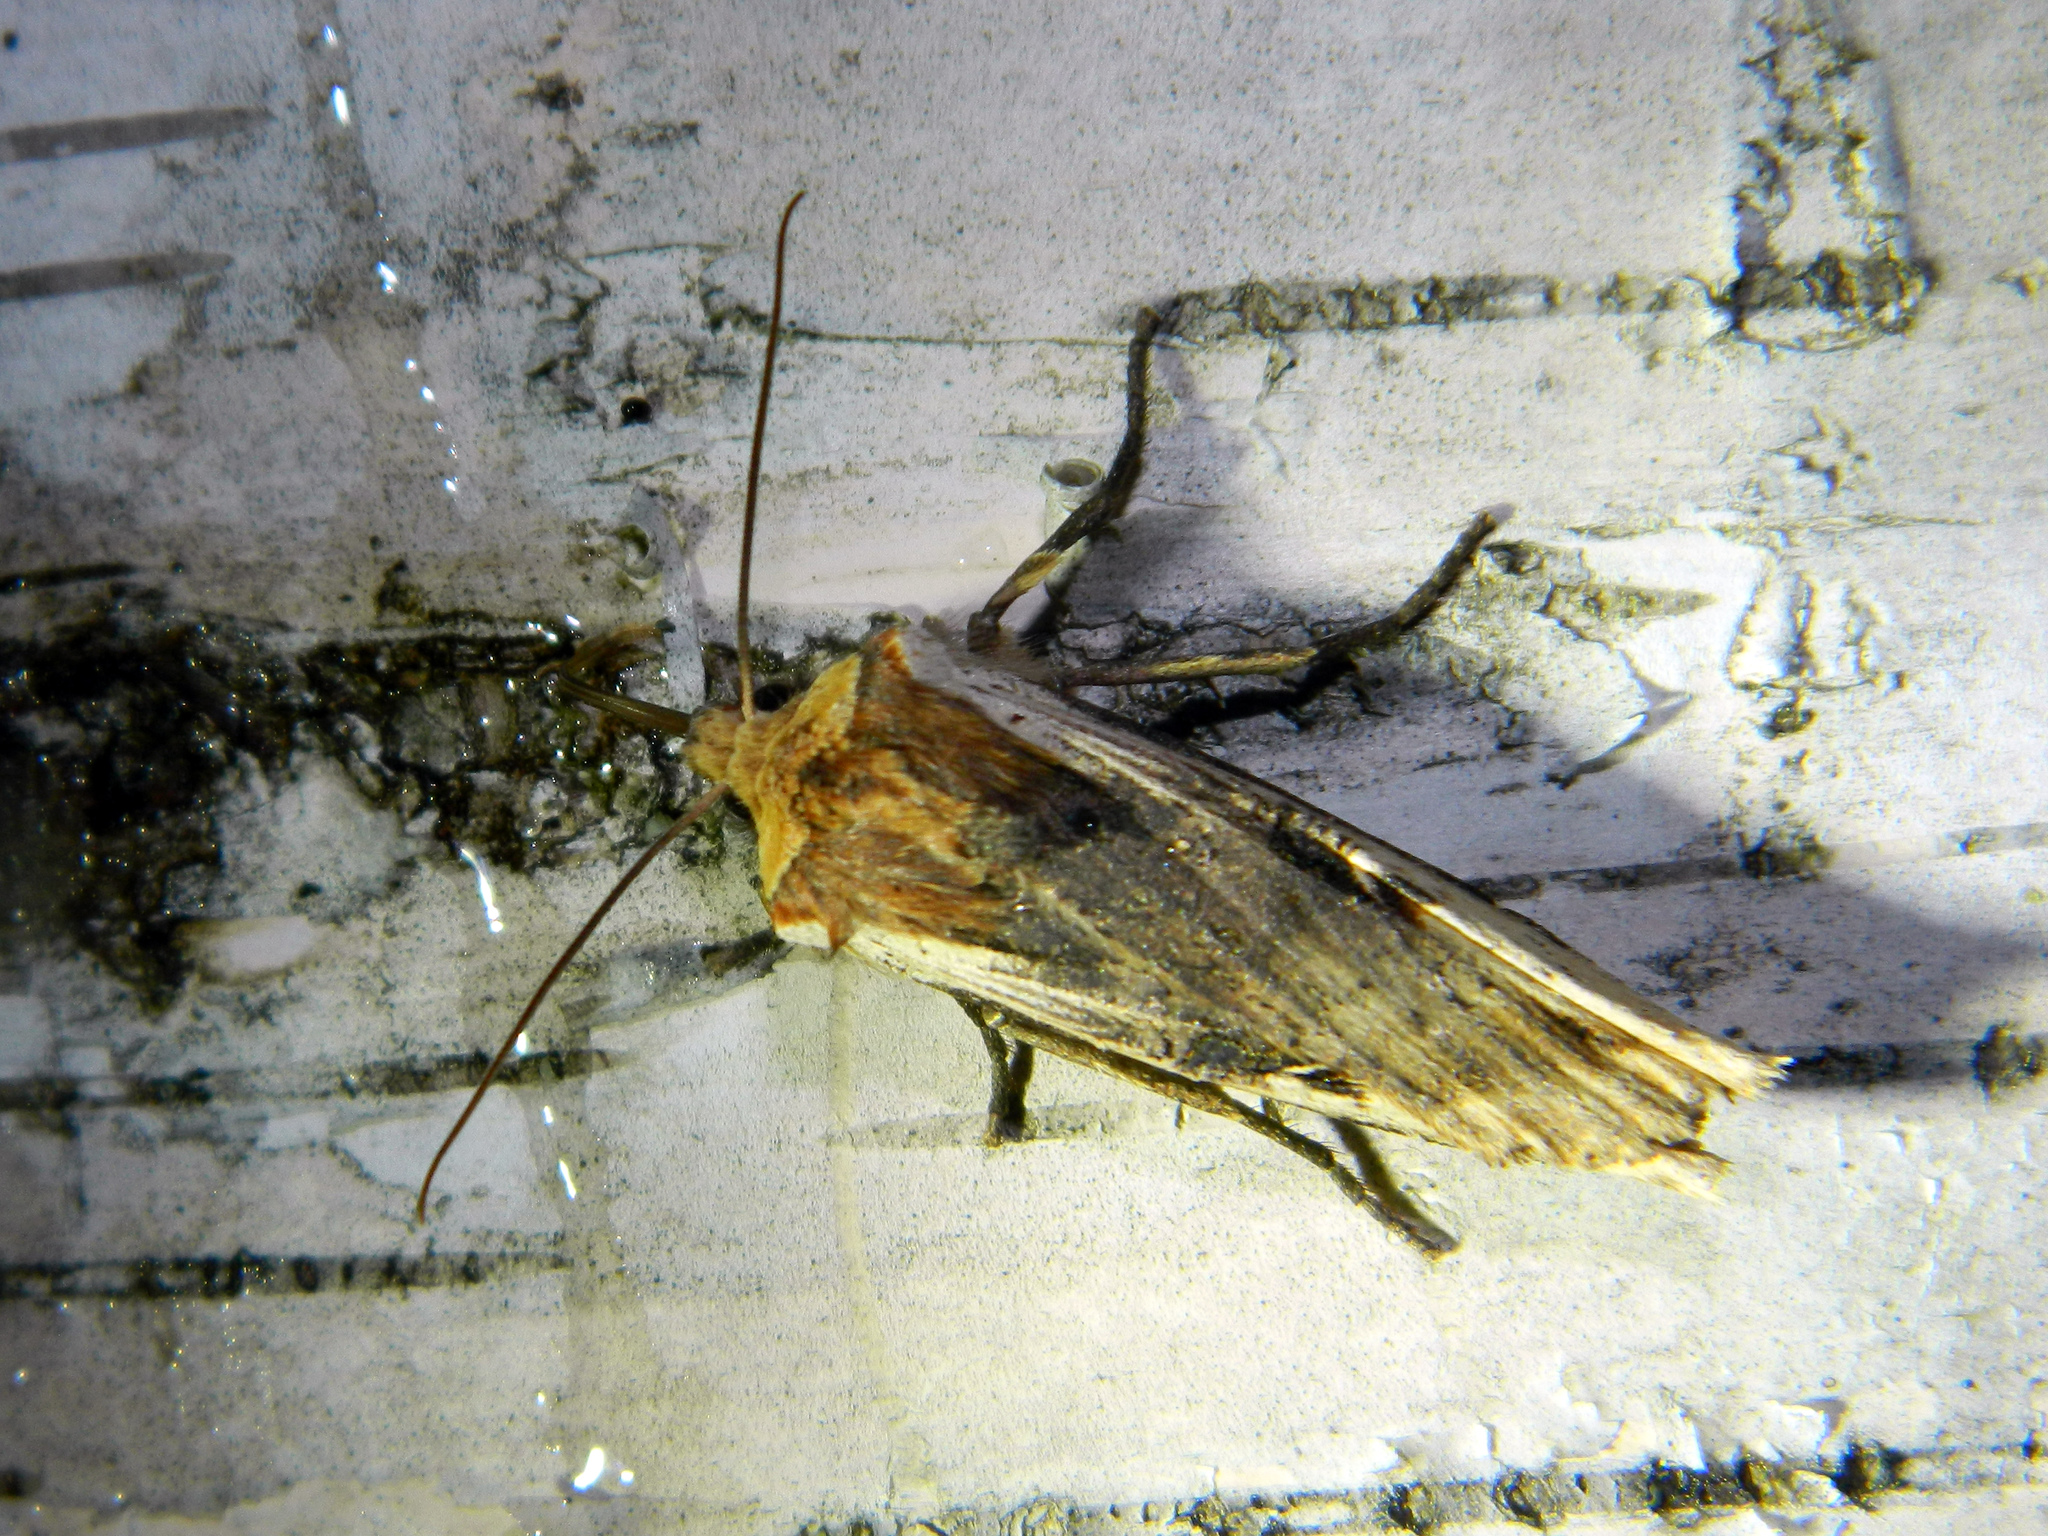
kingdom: Animalia
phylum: Arthropoda
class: Insecta
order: Lepidoptera
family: Noctuidae
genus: Xylena
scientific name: Xylena curvimacula
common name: Dot-and-dash swordgrass moth
